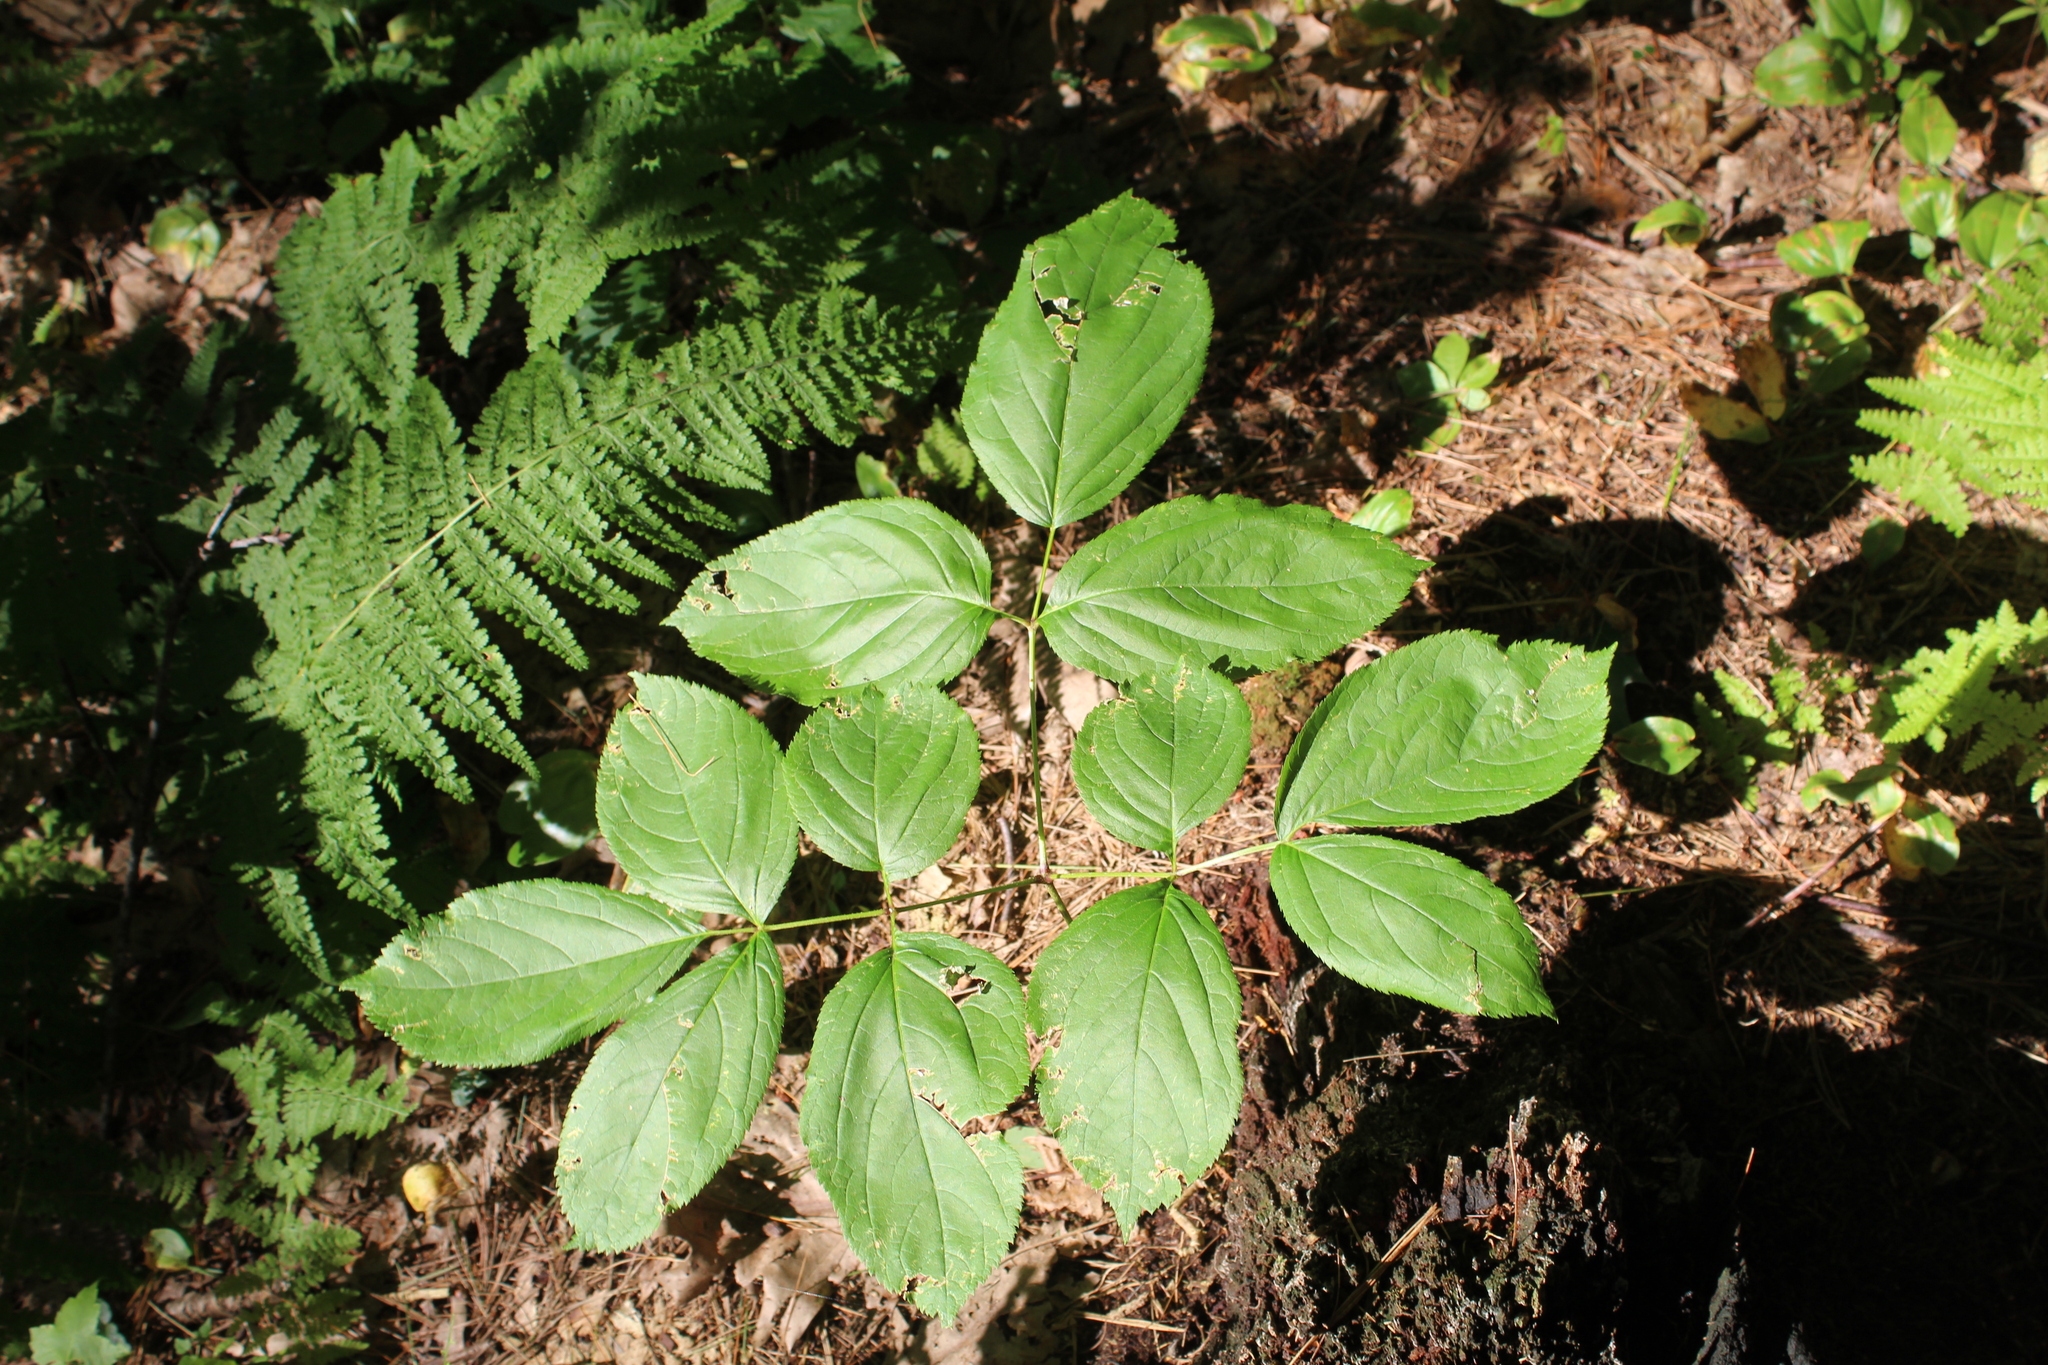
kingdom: Plantae
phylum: Tracheophyta
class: Magnoliopsida
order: Apiales
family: Araliaceae
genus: Aralia
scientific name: Aralia nudicaulis
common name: Wild sarsaparilla
